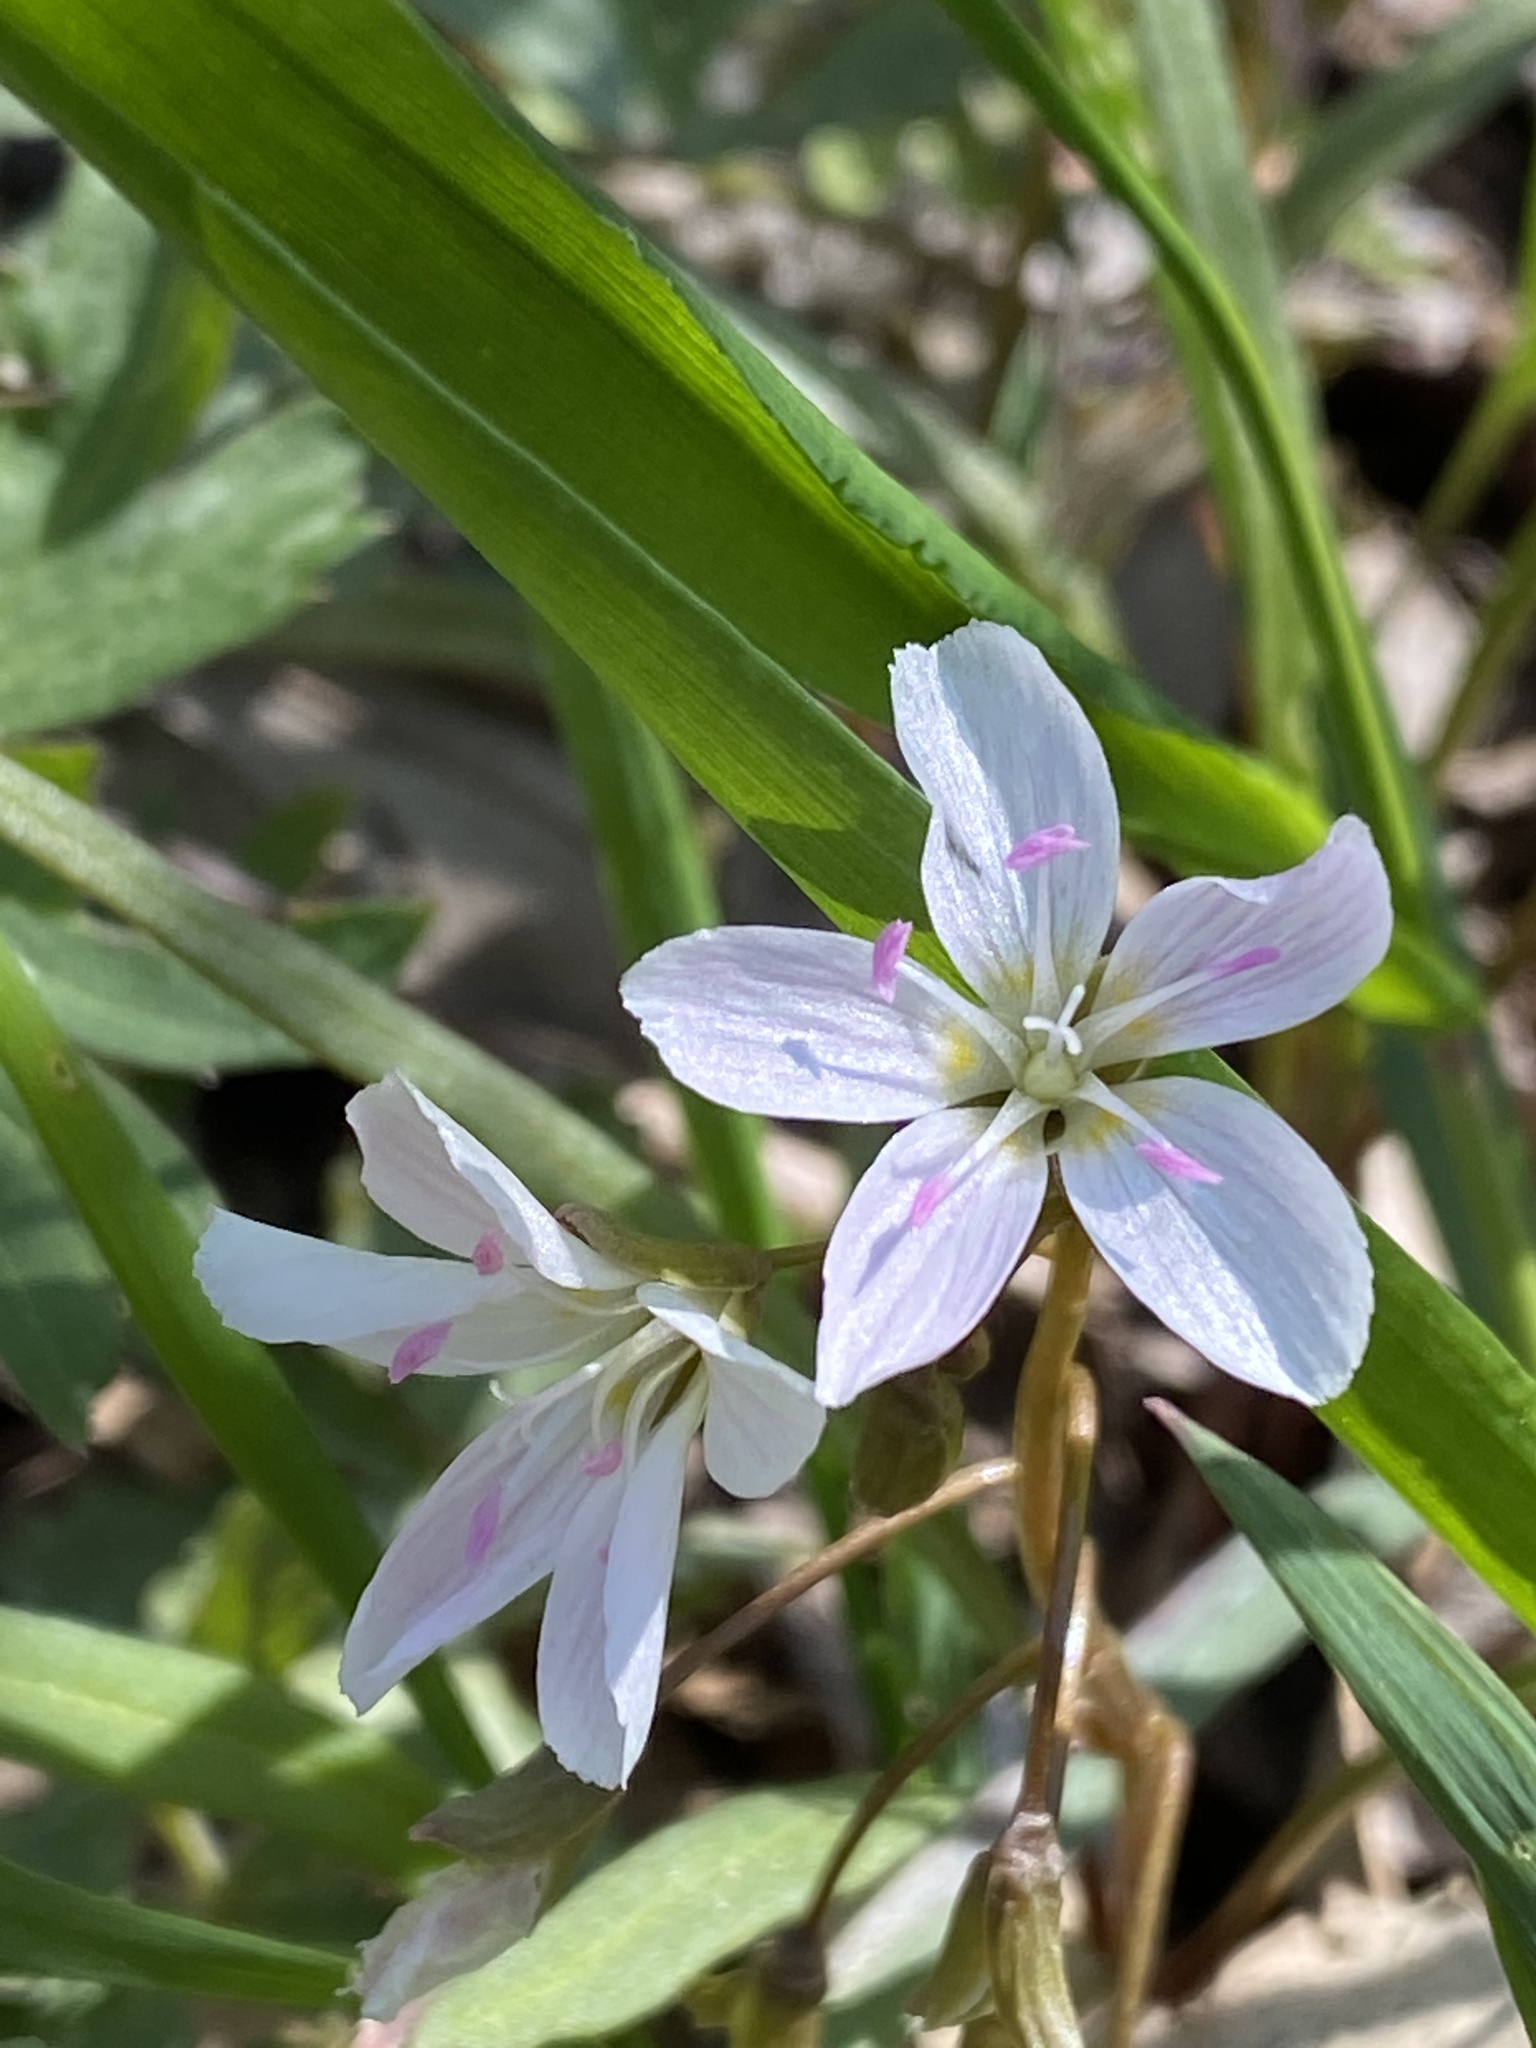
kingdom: Plantae
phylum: Tracheophyta
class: Magnoliopsida
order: Caryophyllales
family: Montiaceae
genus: Claytonia
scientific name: Claytonia virginica
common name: Virginia springbeauty
